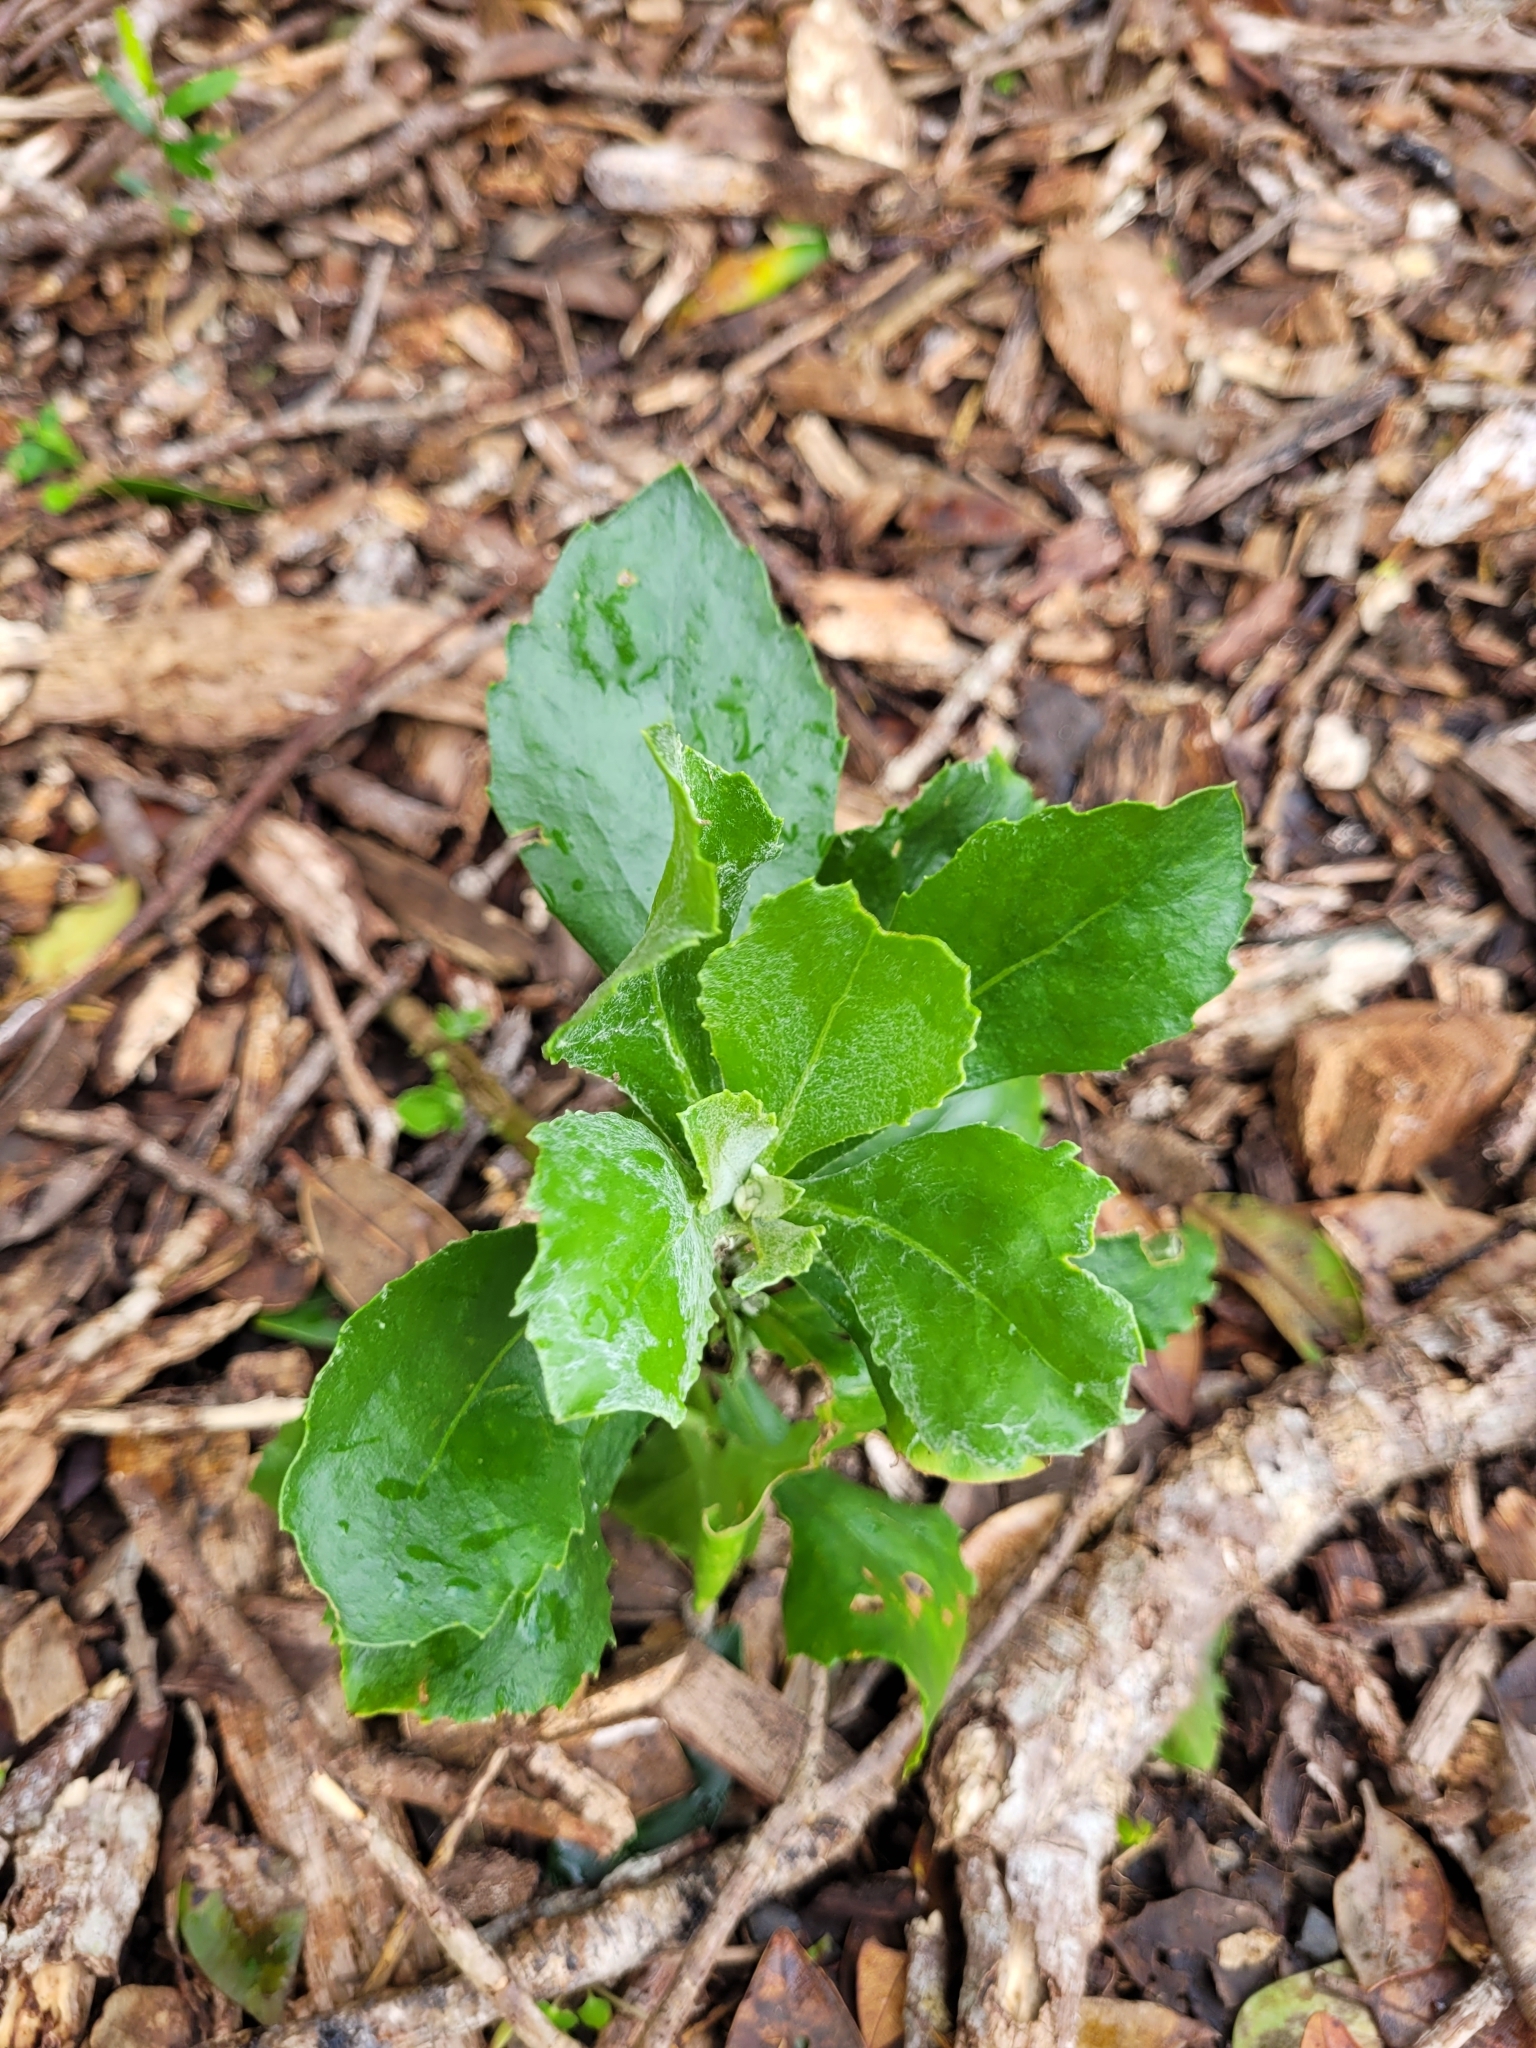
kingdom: Plantae
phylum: Tracheophyta
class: Magnoliopsida
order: Asterales
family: Asteraceae
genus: Osteospermum
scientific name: Osteospermum moniliferum
